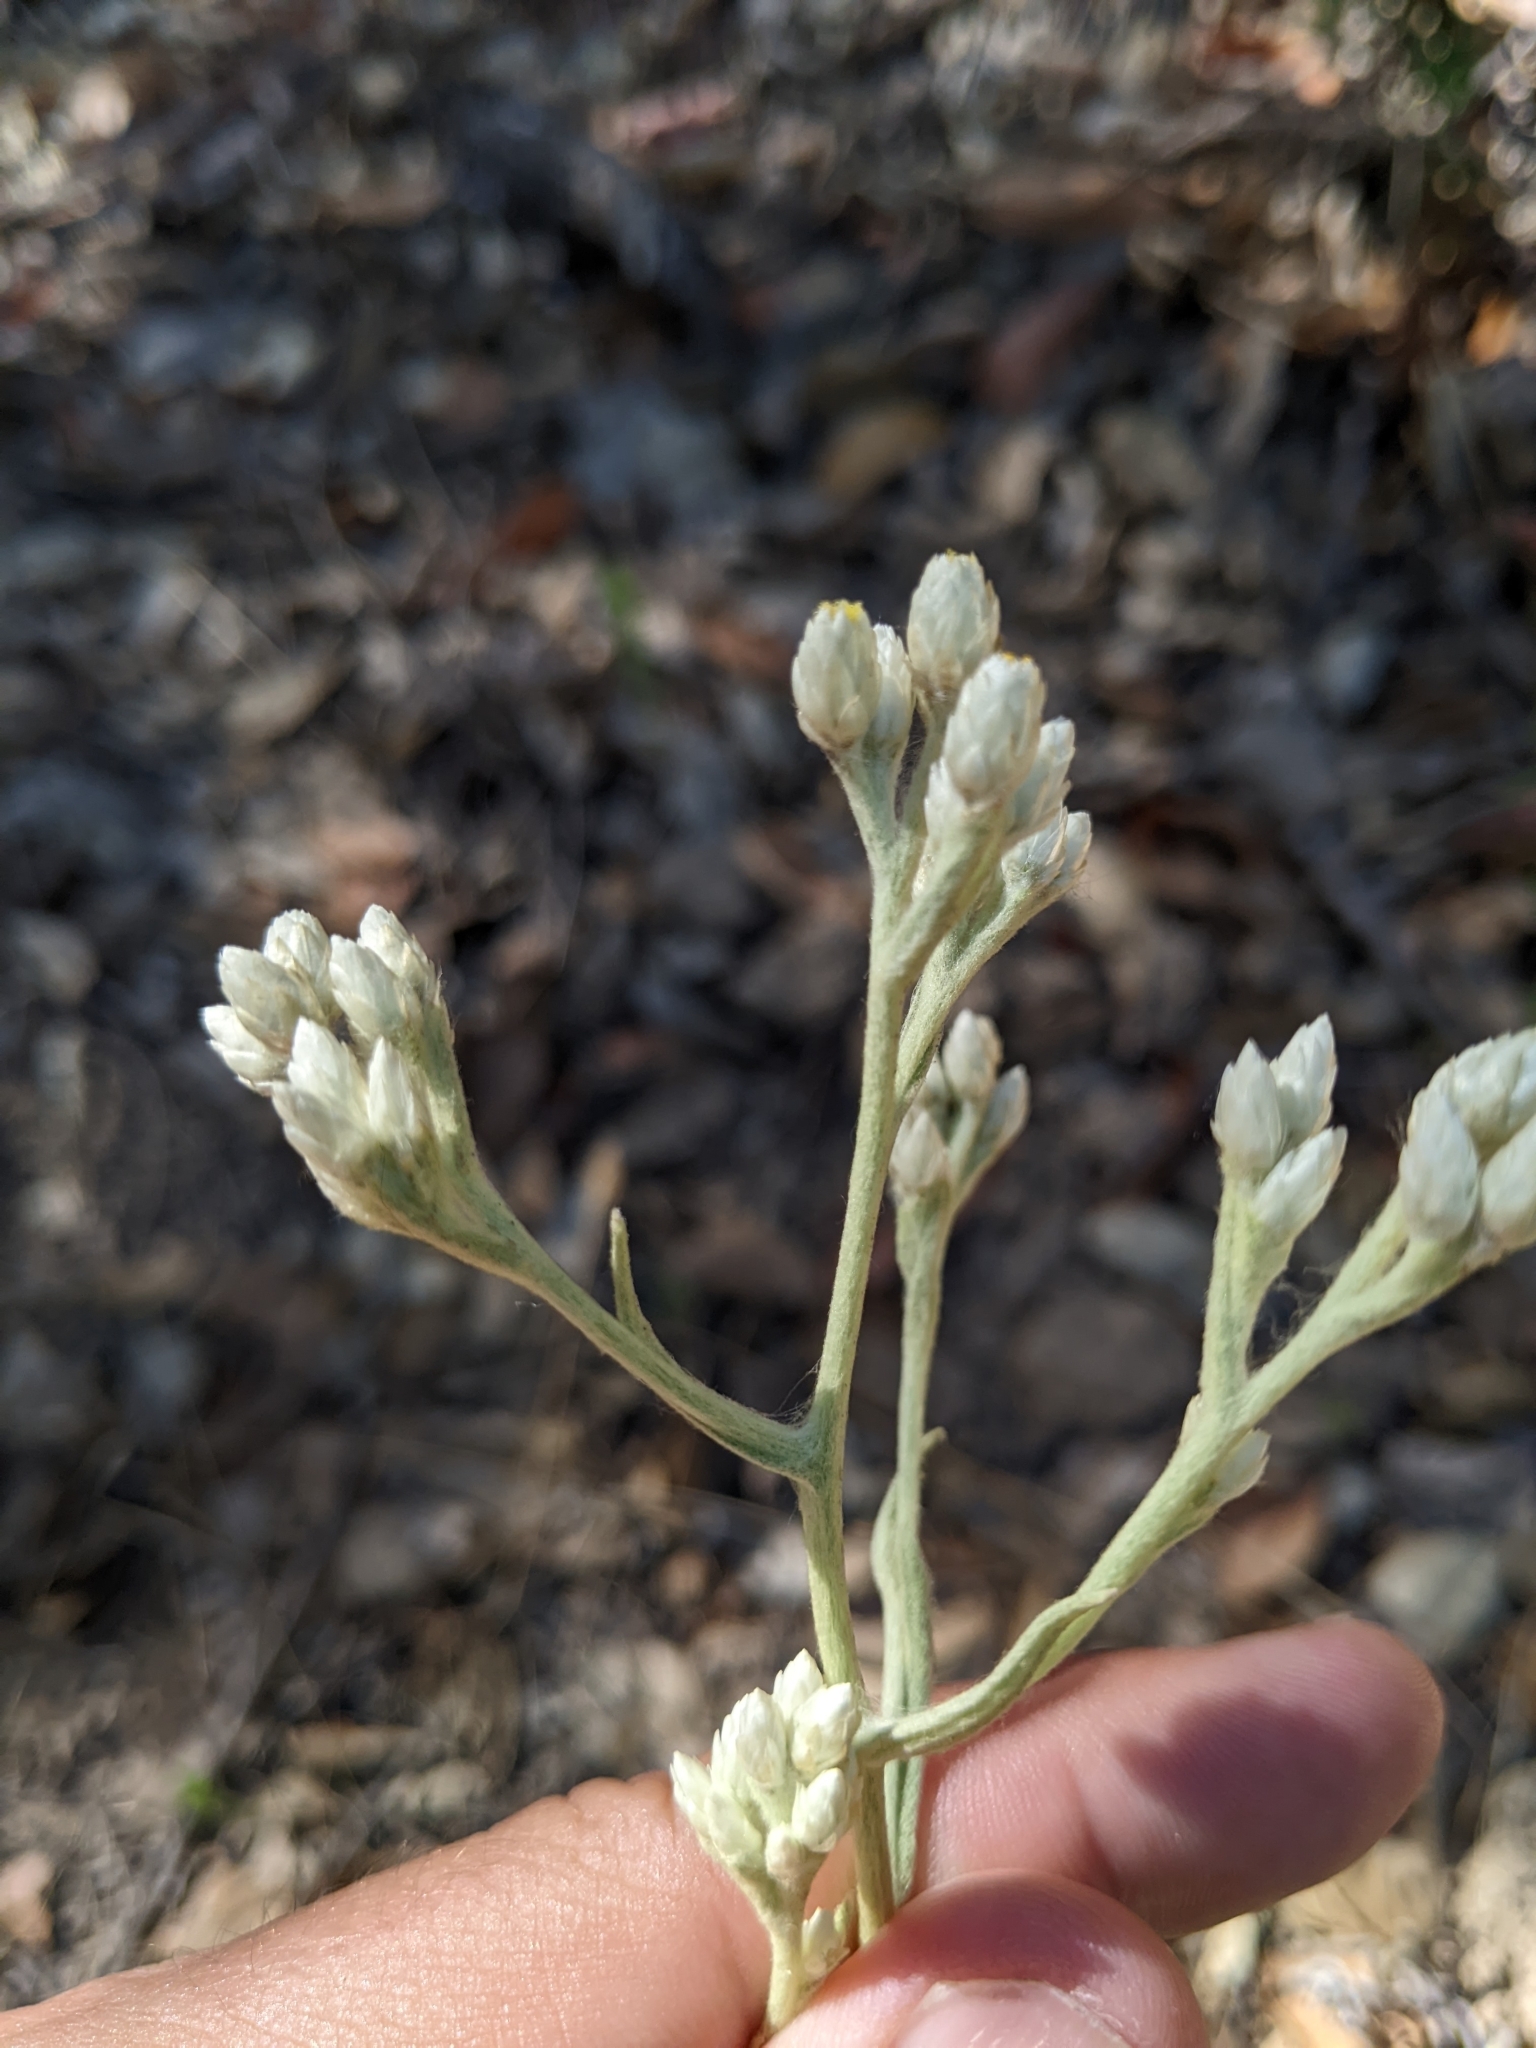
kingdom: Plantae
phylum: Tracheophyta
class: Magnoliopsida
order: Asterales
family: Asteraceae
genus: Pseudognaphalium
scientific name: Pseudognaphalium beneolens
